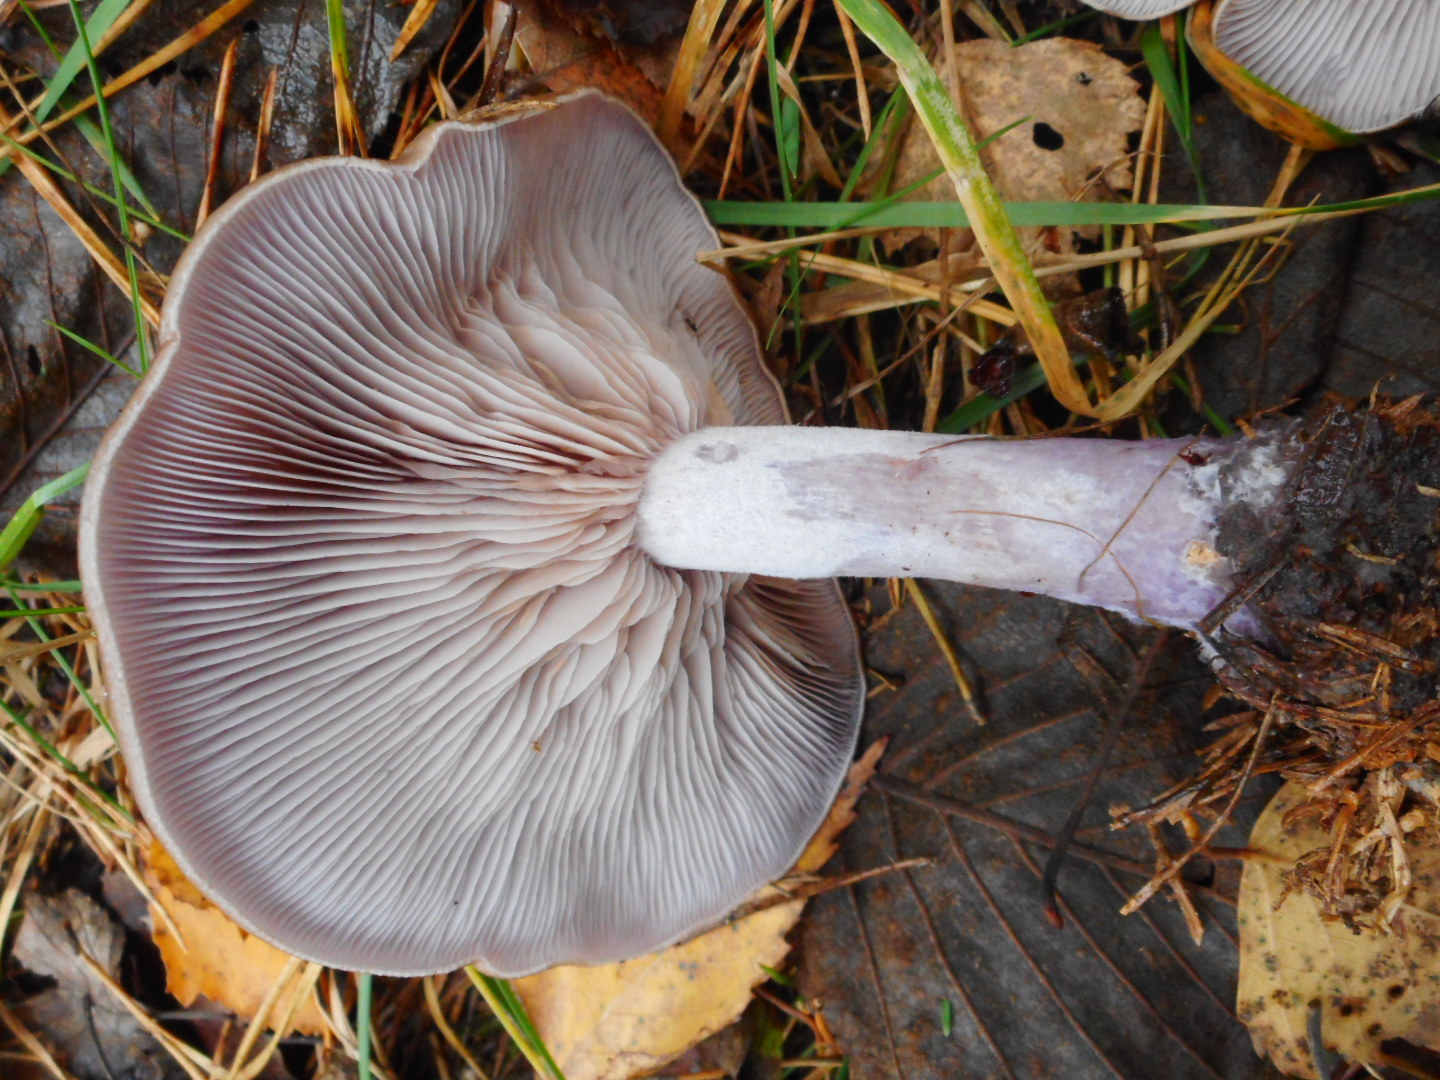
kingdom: Fungi
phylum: Basidiomycota
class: Agaricomycetes
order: Agaricales
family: Tricholomataceae
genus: Collybia
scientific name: Collybia
